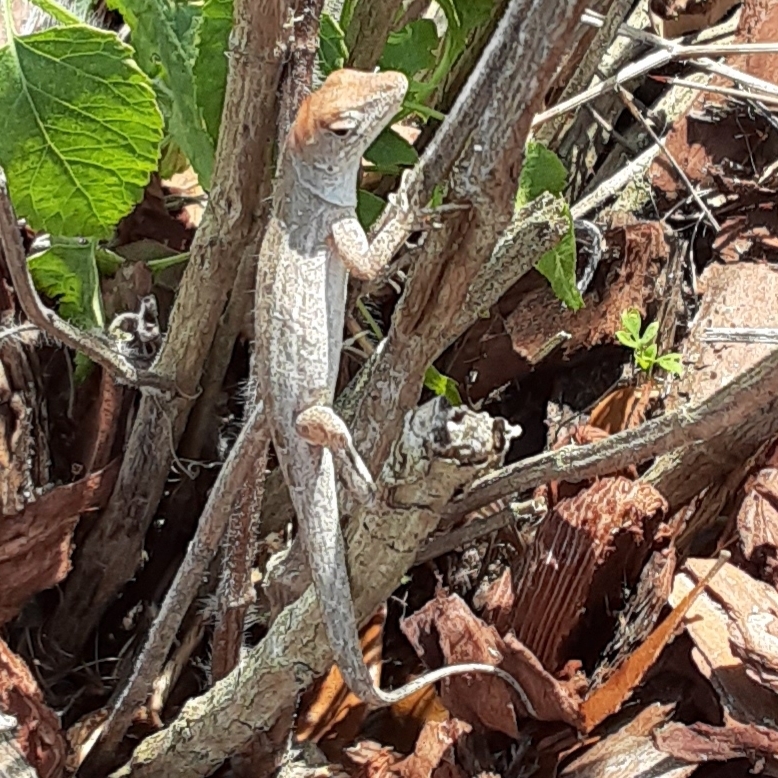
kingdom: Animalia
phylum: Chordata
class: Squamata
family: Dactyloidae
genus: Anolis
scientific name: Anolis sagrei
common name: Brown anole
